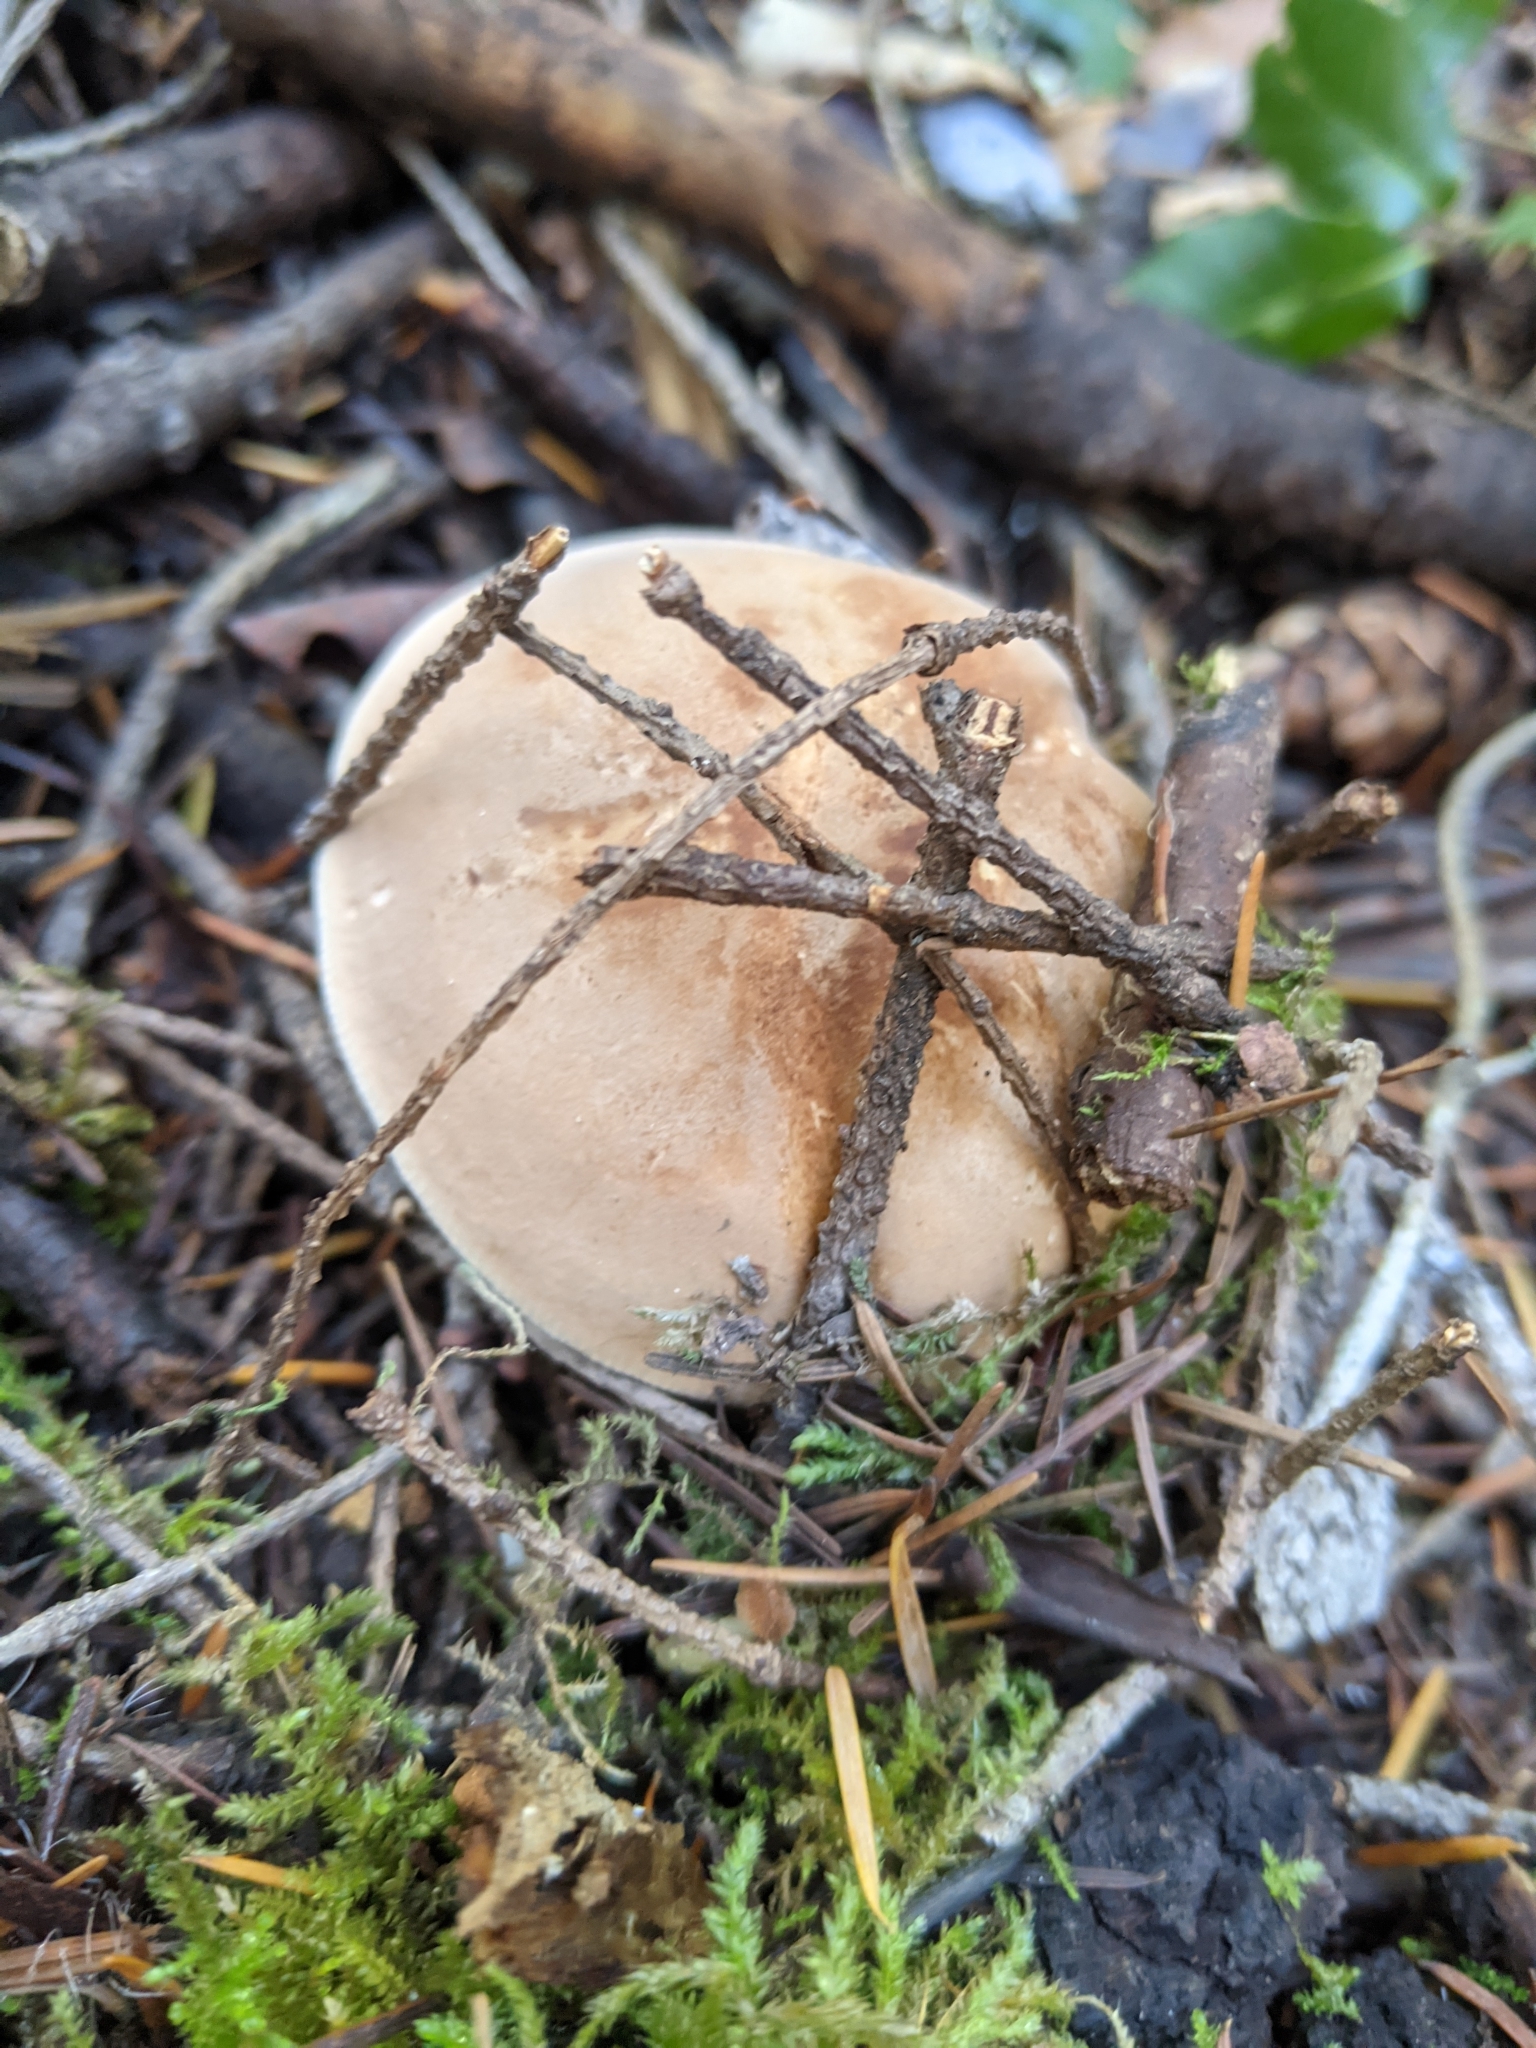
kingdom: Fungi
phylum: Basidiomycota
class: Agaricomycetes
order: Agaricales
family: Tricholomataceae
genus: Leucopaxillus
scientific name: Leucopaxillus gentianeus
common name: Bitter funnel
